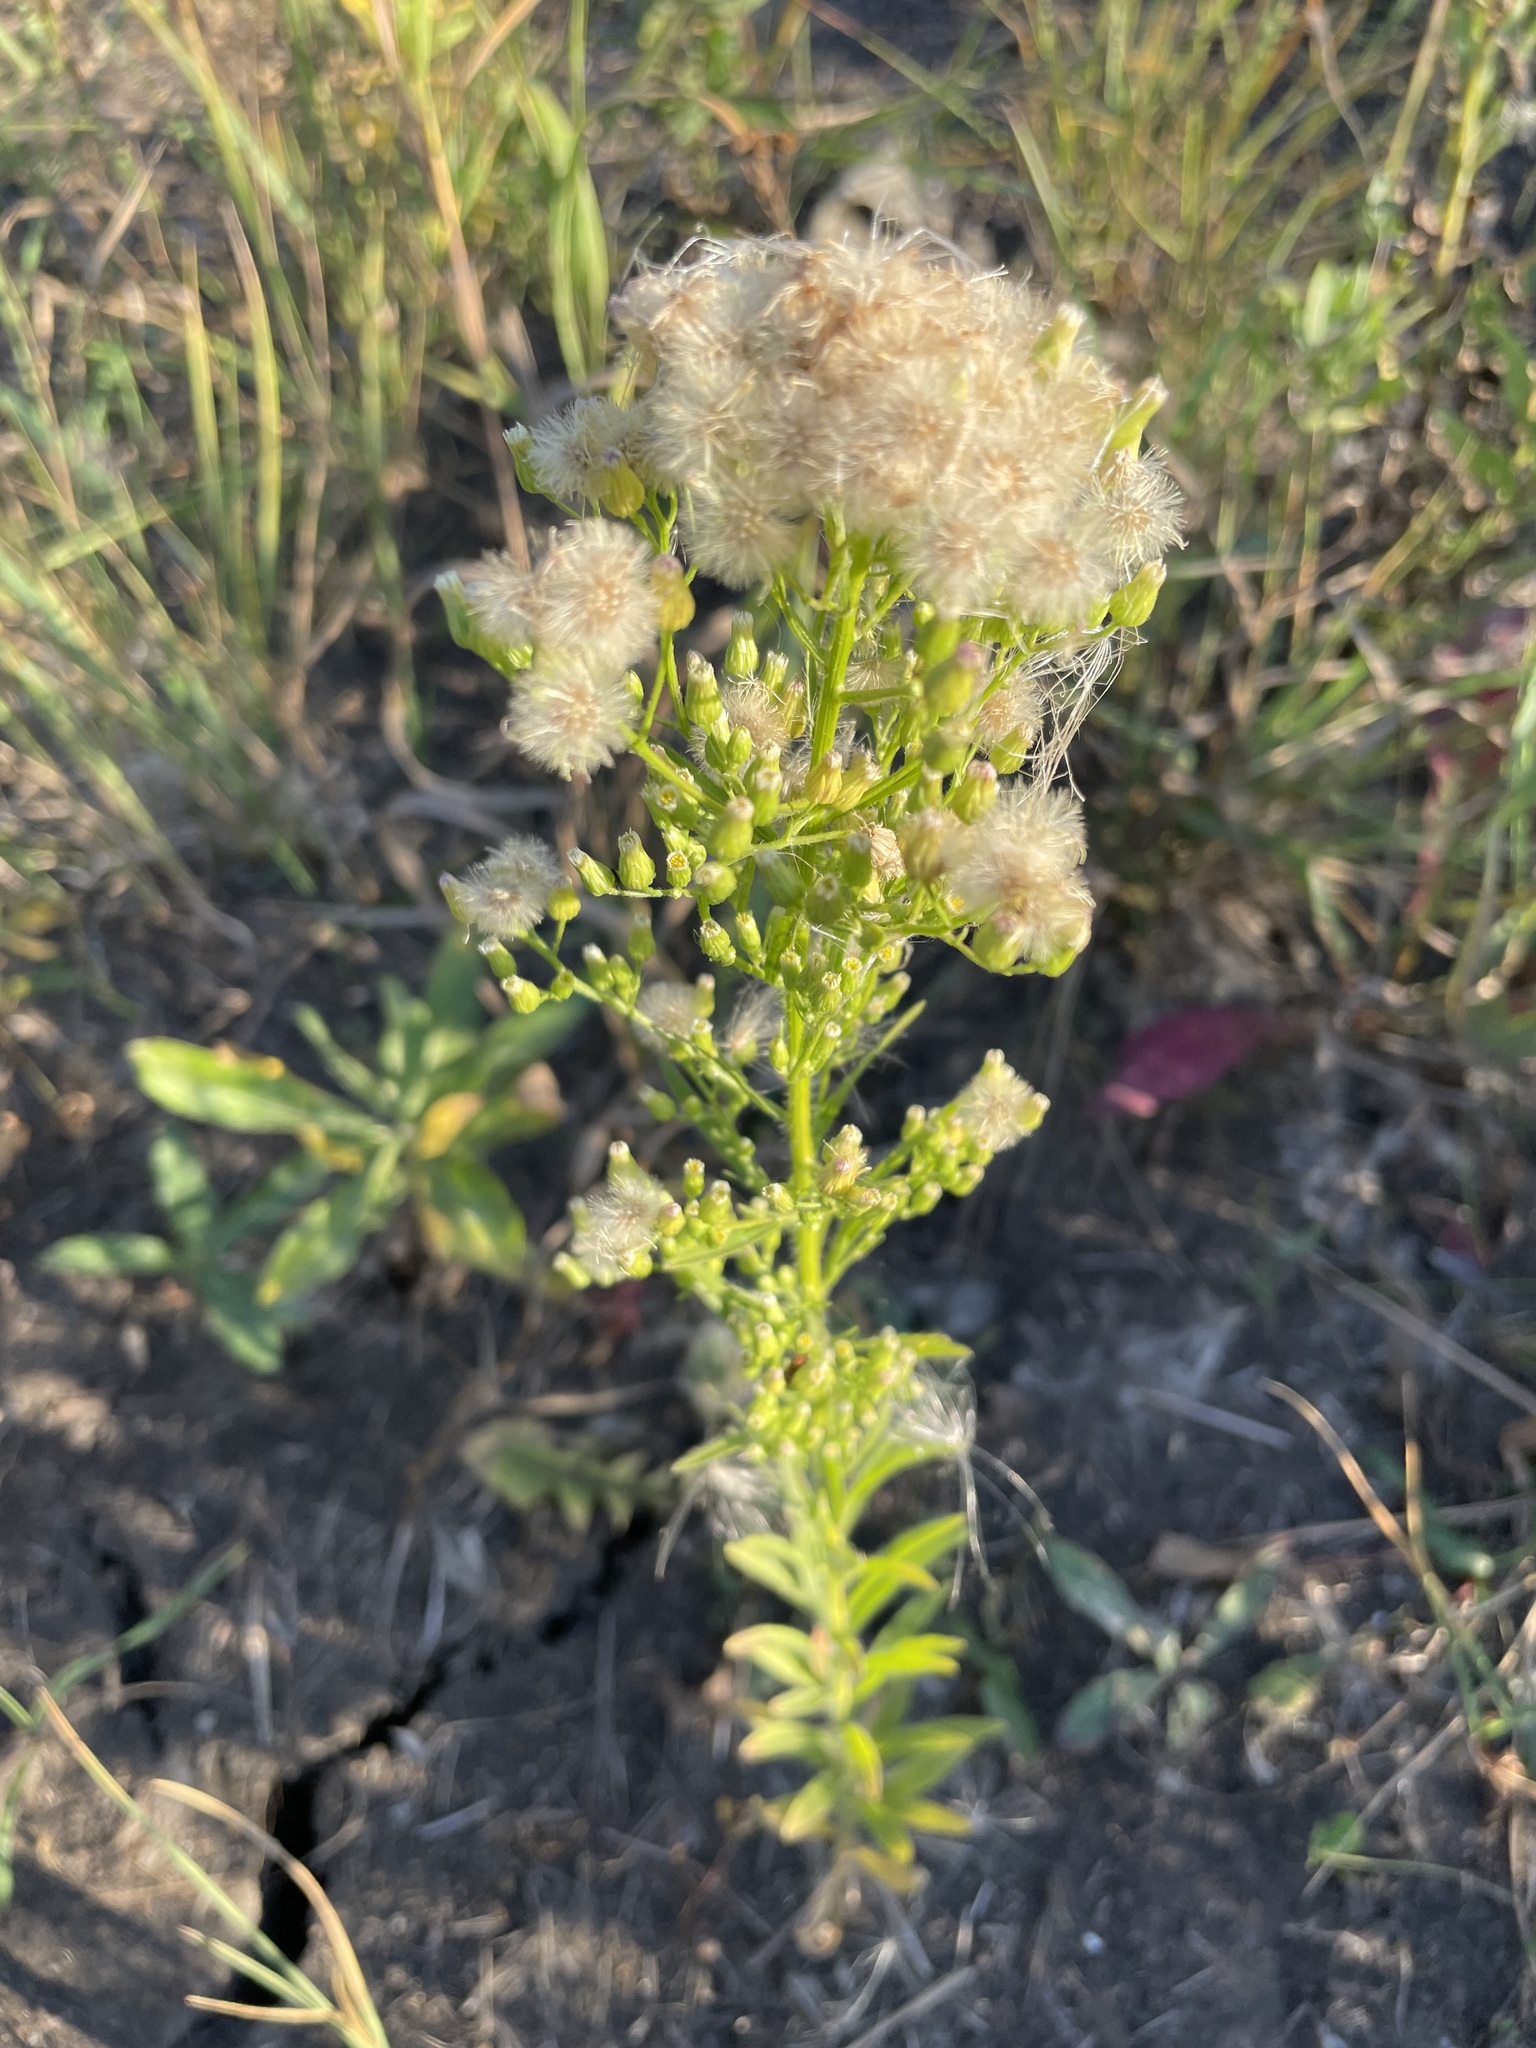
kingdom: Plantae
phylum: Tracheophyta
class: Magnoliopsida
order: Asterales
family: Asteraceae
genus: Erigeron
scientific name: Erigeron canadensis
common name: Canadian fleabane
